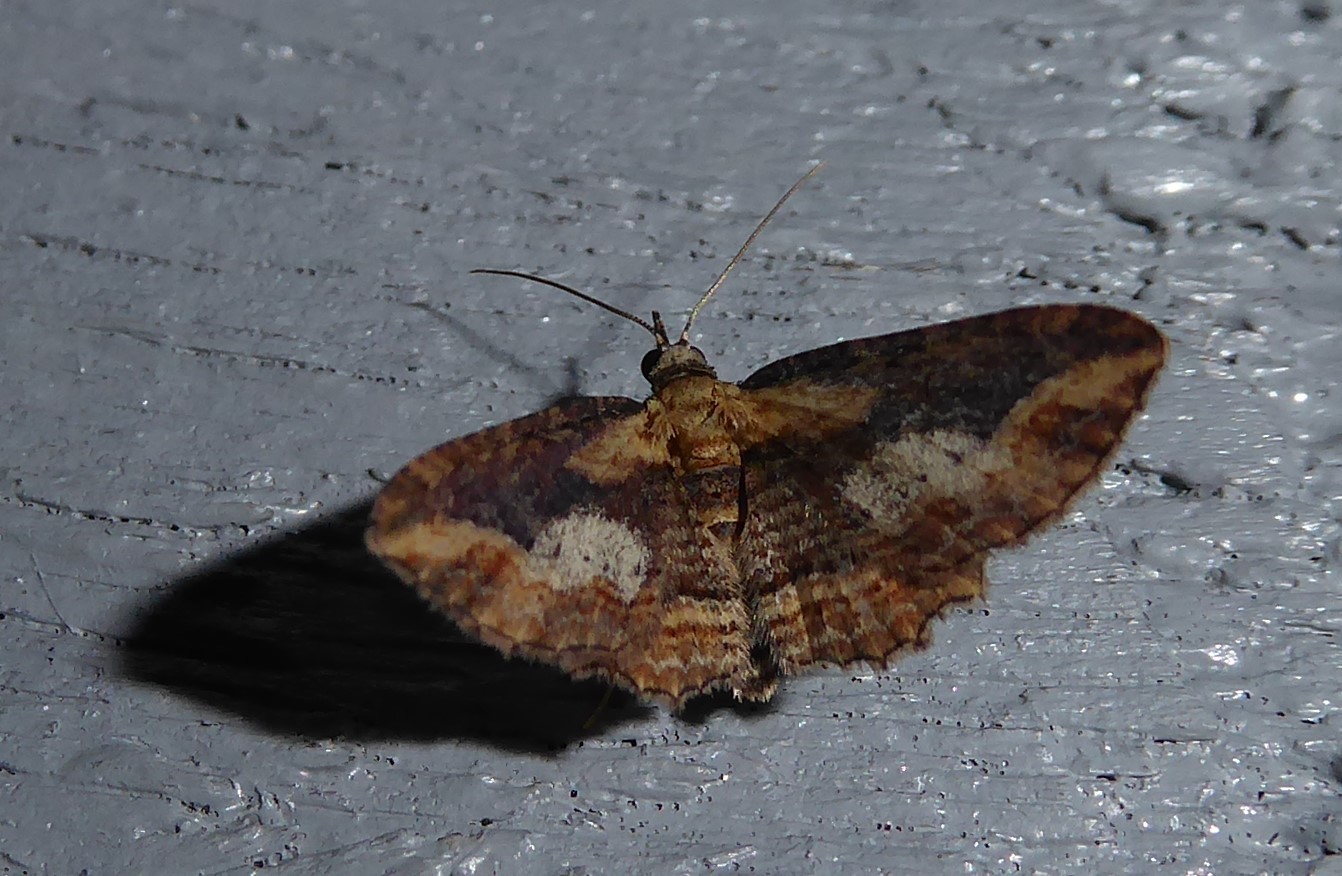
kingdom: Animalia
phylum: Arthropoda
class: Insecta
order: Lepidoptera
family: Geometridae
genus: Chloroclystis
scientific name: Chloroclystis filata
